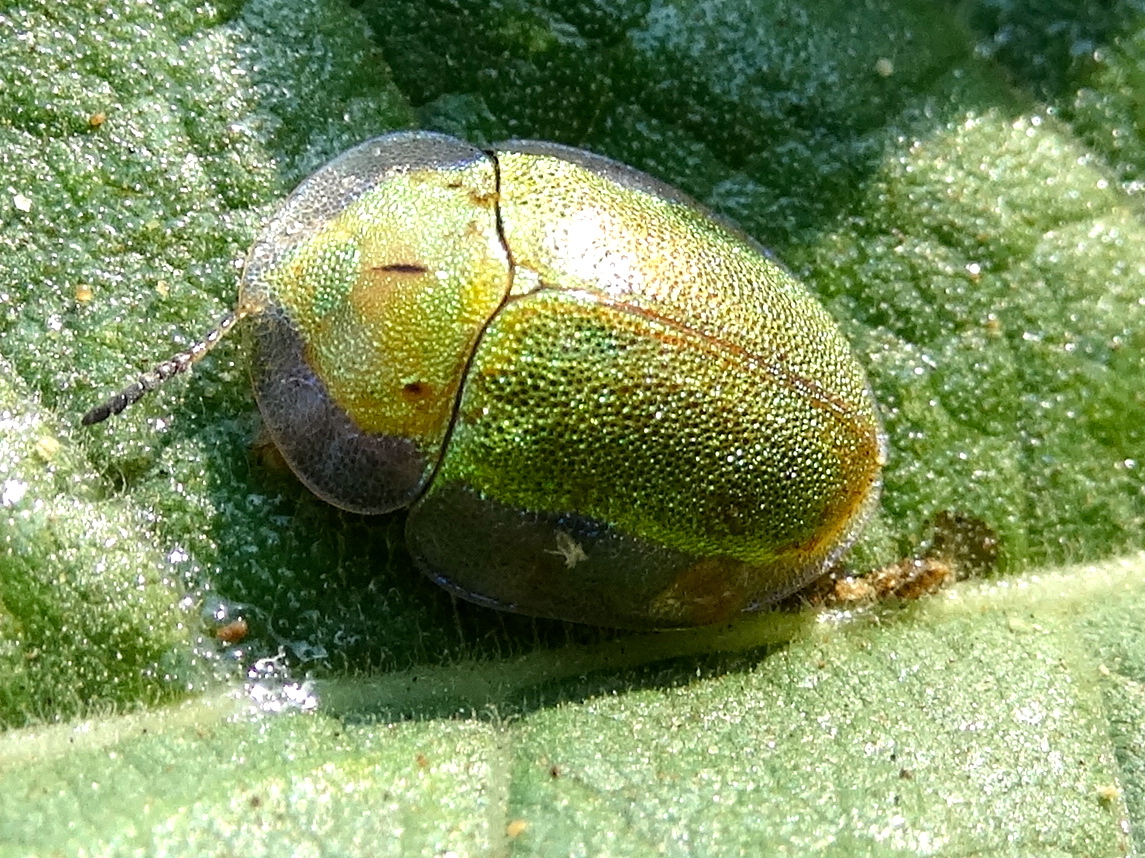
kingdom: Animalia
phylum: Arthropoda
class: Insecta
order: Coleoptera
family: Chrysomelidae
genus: Physonota
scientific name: Physonota
